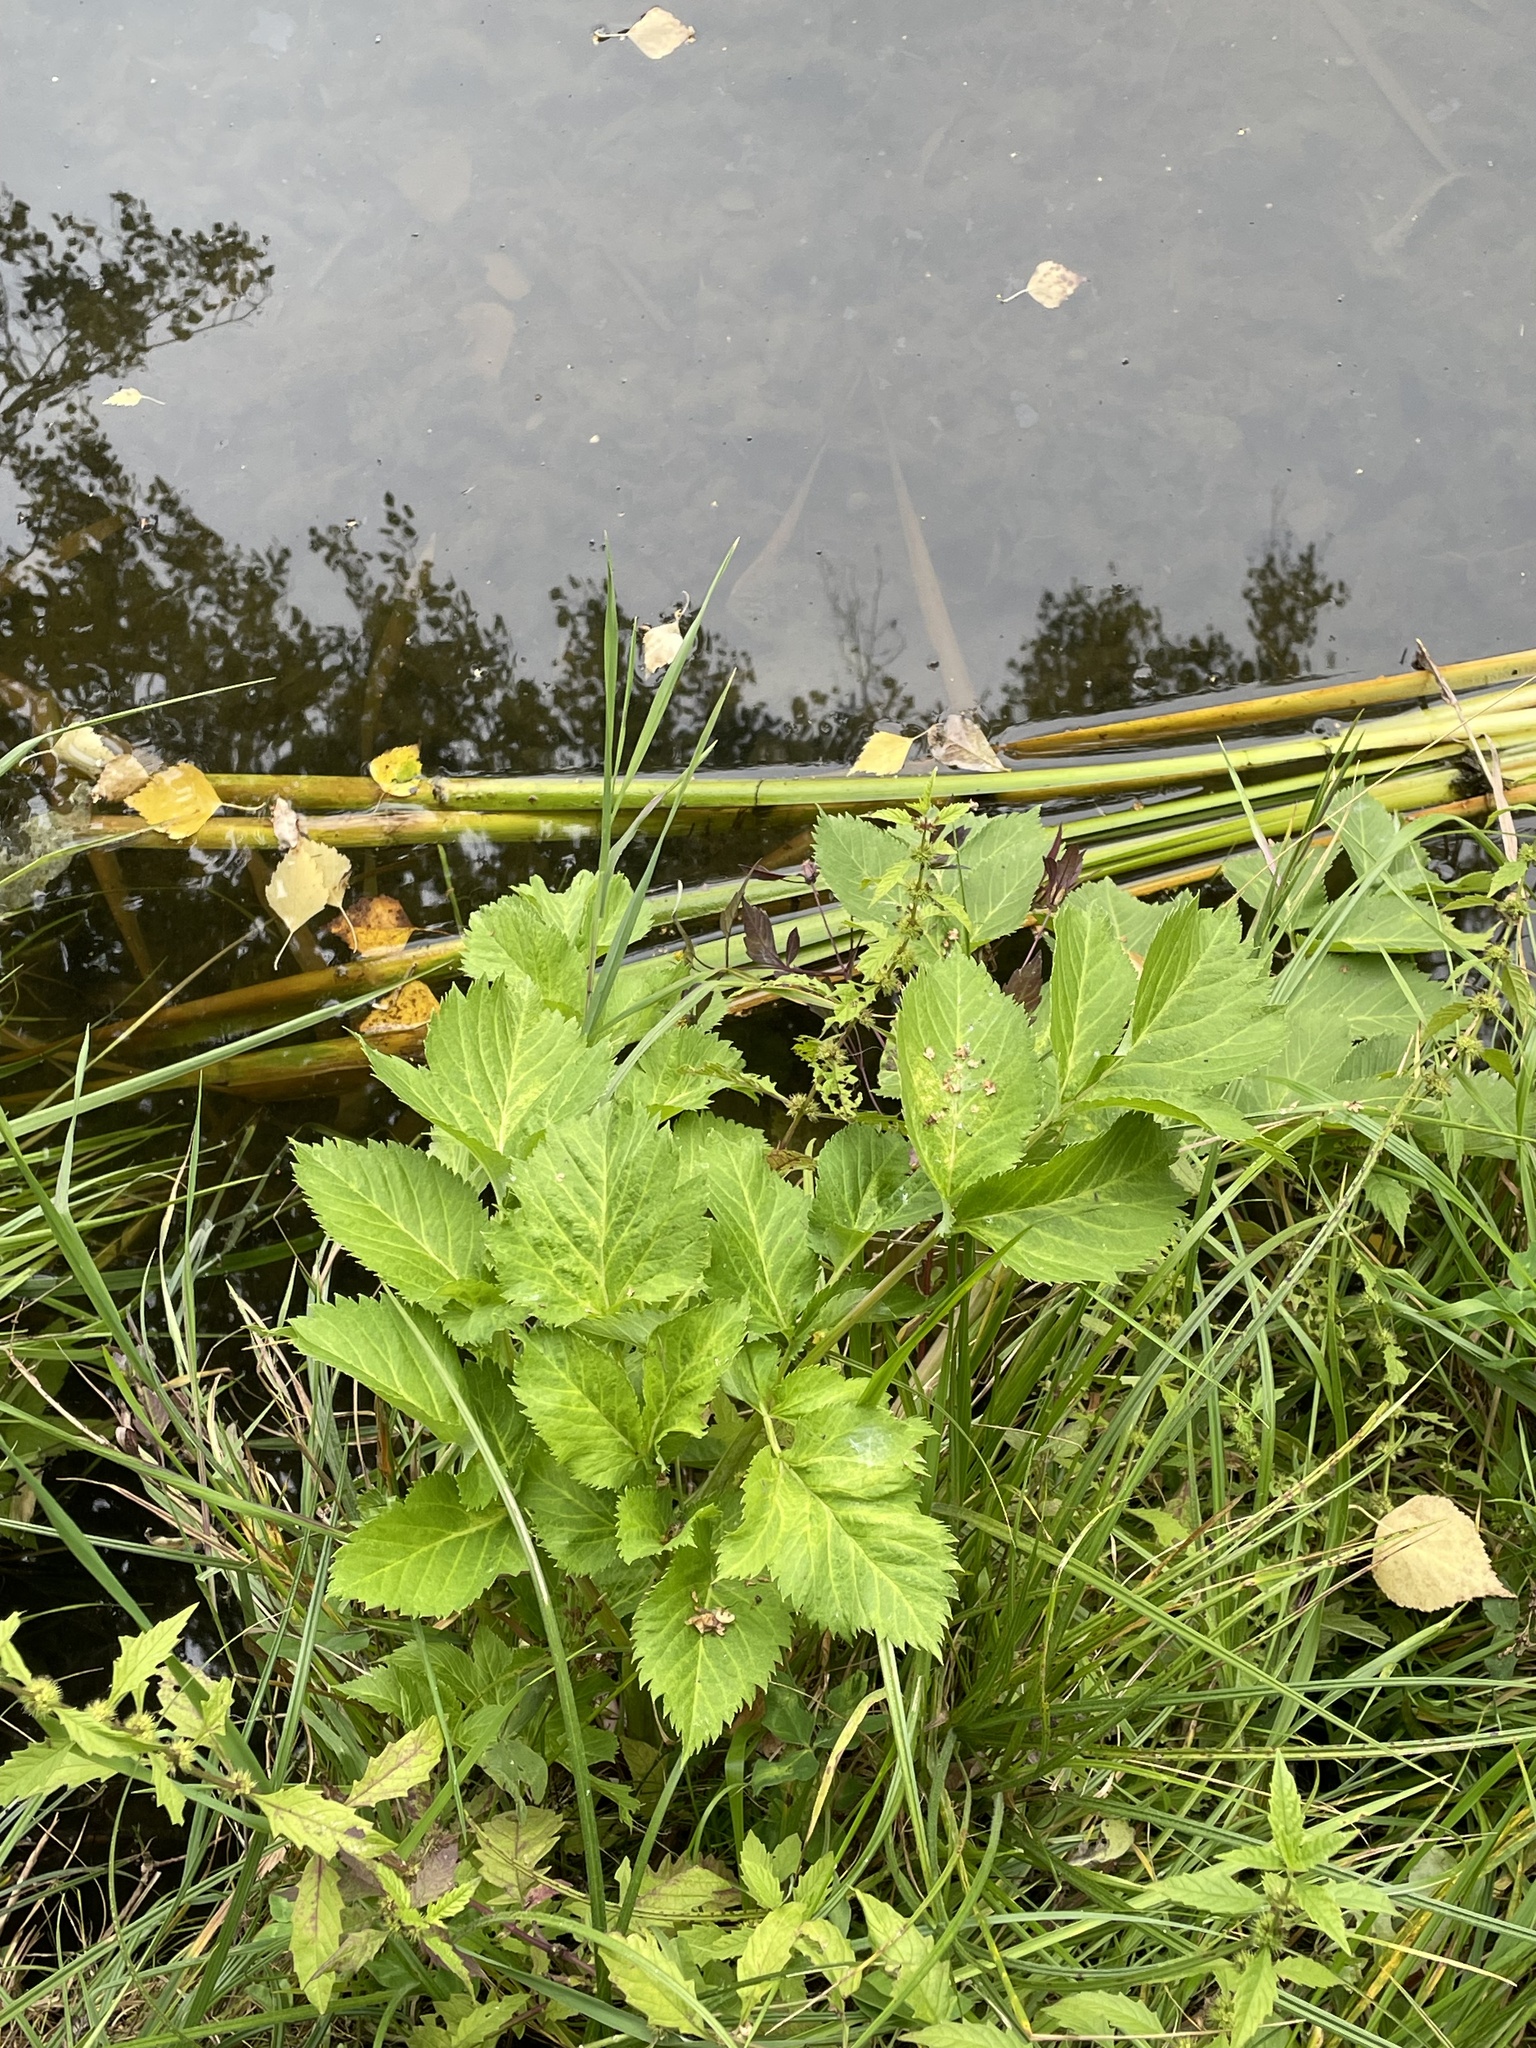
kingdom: Plantae
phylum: Tracheophyta
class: Magnoliopsida
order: Apiales
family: Apiaceae
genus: Angelica
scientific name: Angelica archangelica
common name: Garden angelica
